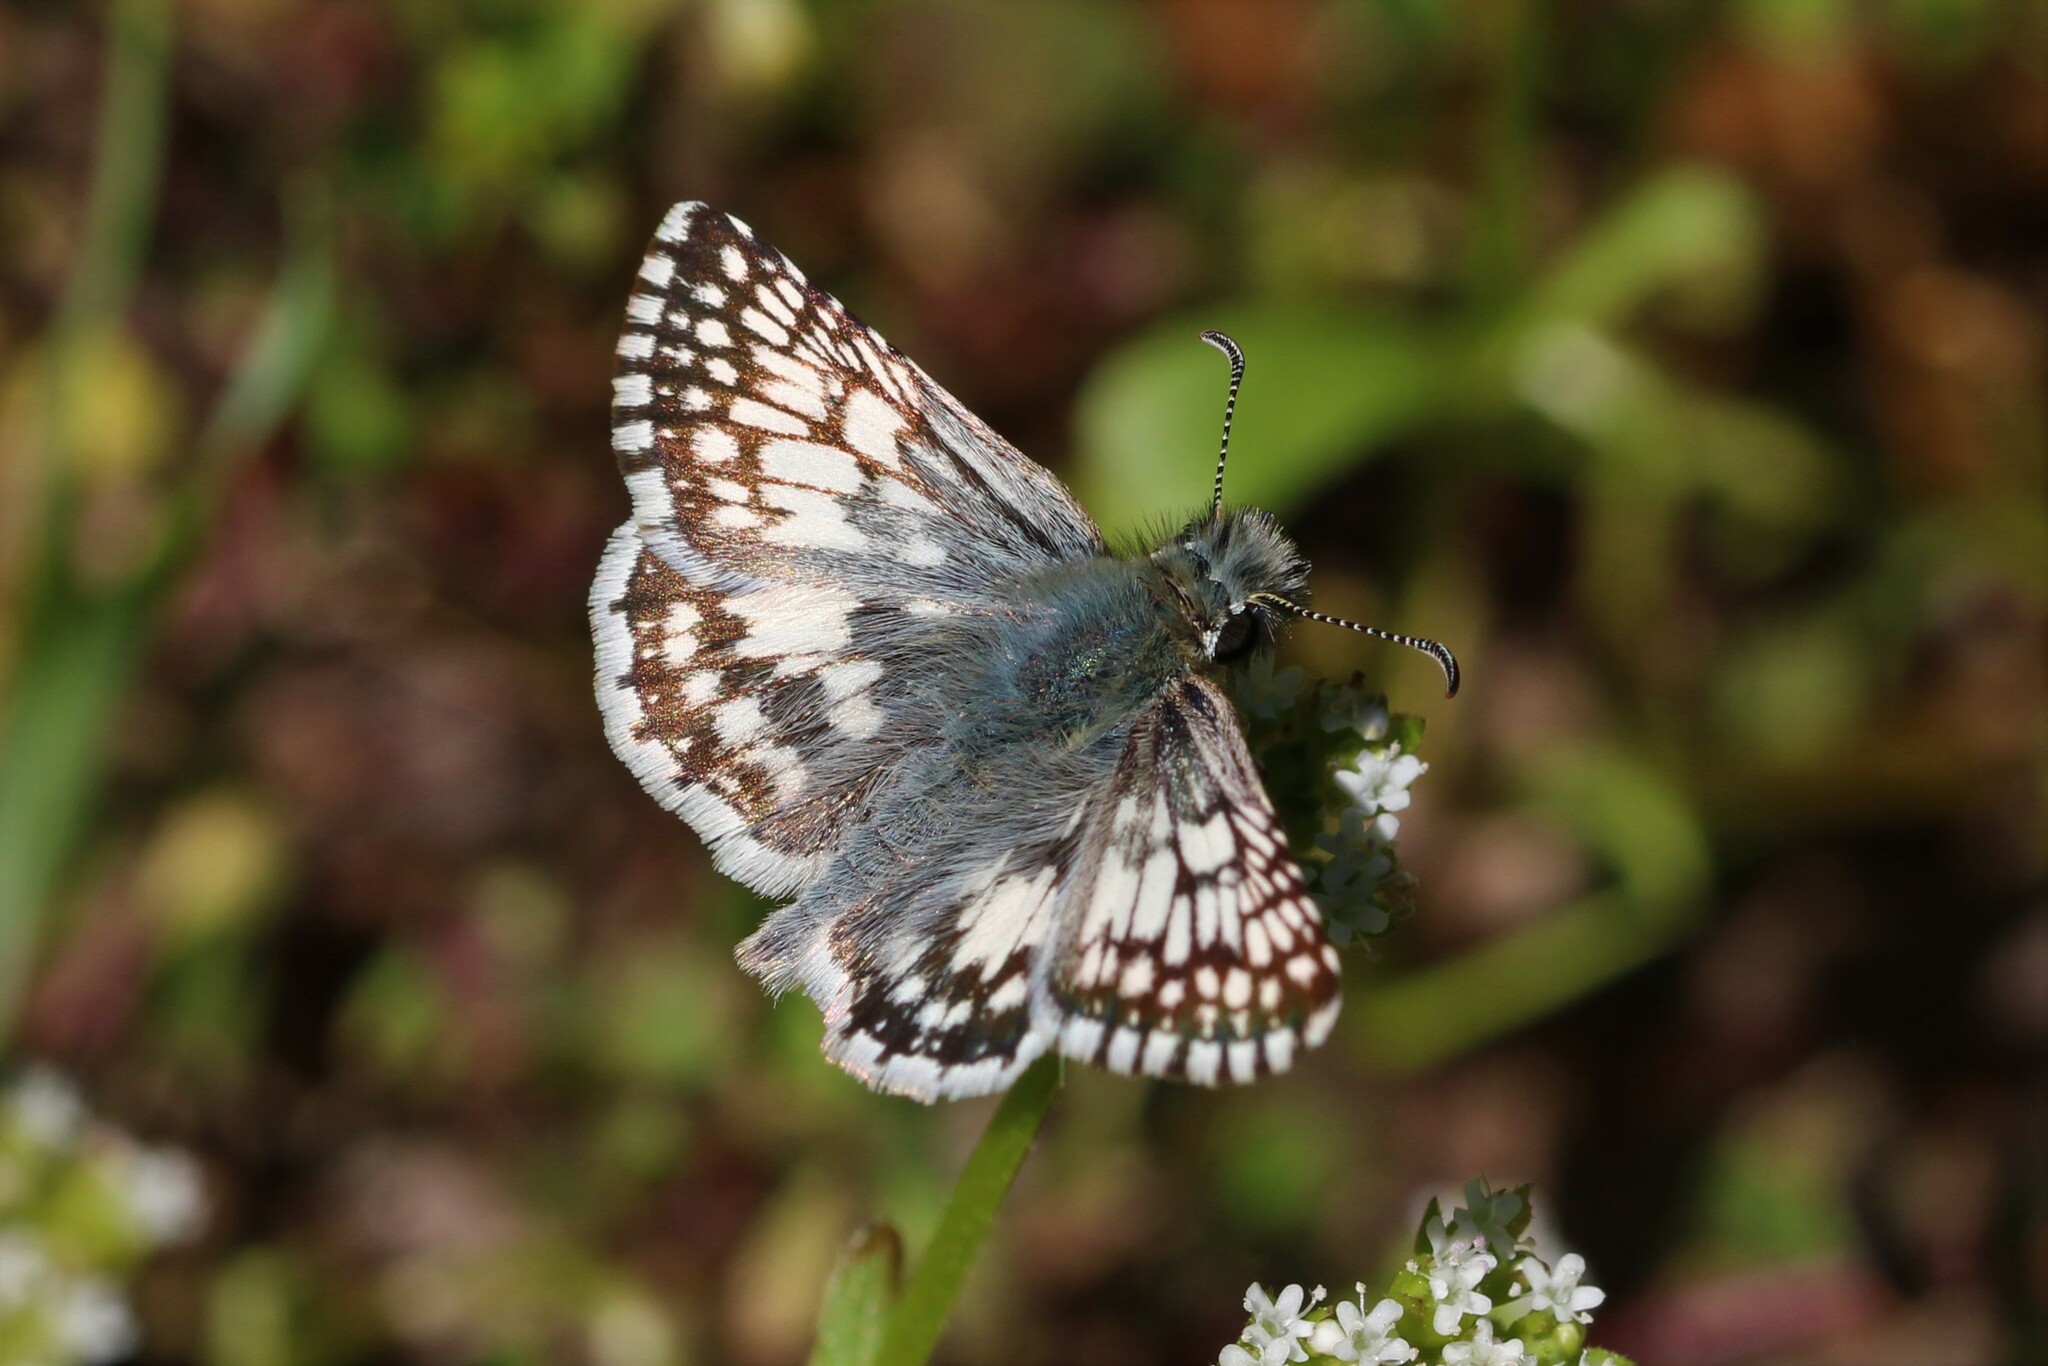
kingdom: Animalia
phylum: Arthropoda
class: Insecta
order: Lepidoptera
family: Hesperiidae
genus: Burnsius
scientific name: Burnsius albezens
